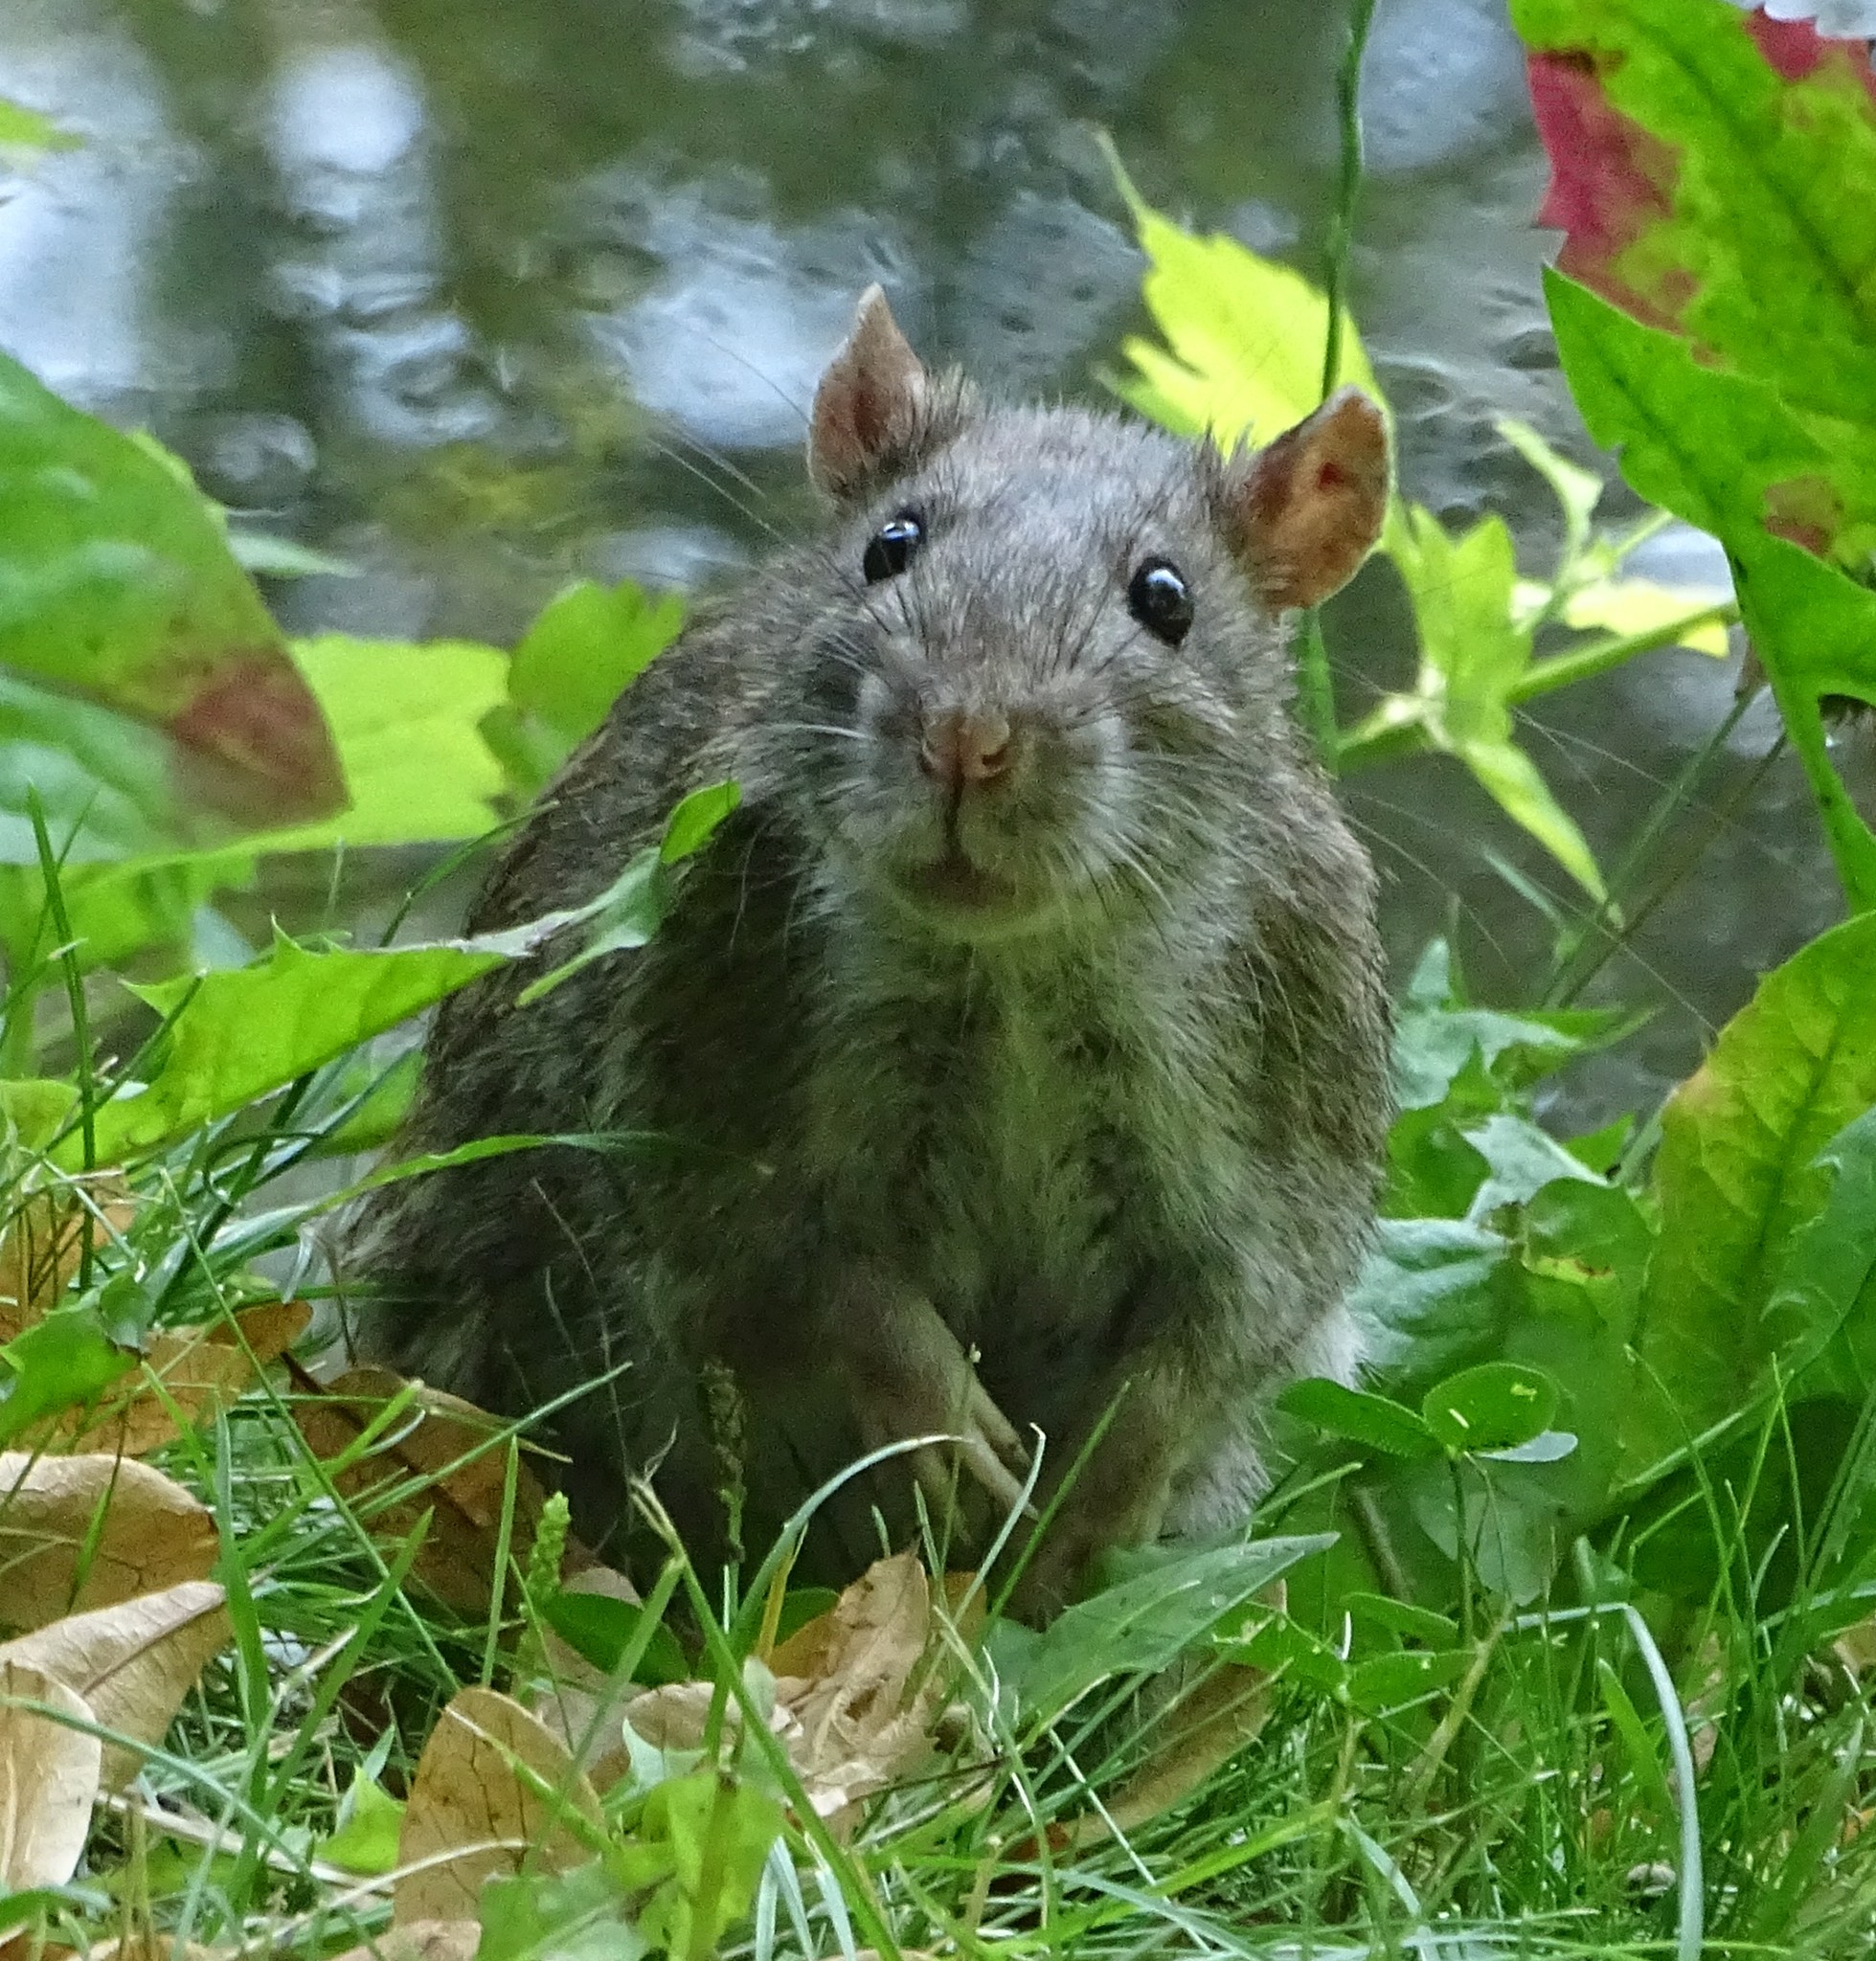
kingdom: Animalia
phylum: Chordata
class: Mammalia
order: Rodentia
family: Muridae
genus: Rattus
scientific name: Rattus norvegicus
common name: Brown rat
